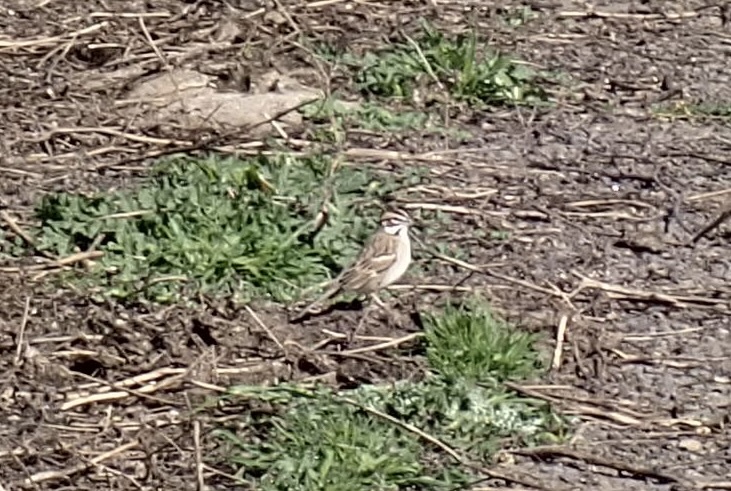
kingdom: Animalia
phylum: Chordata
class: Aves
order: Passeriformes
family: Passerellidae
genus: Chondestes
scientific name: Chondestes grammacus
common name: Lark sparrow
